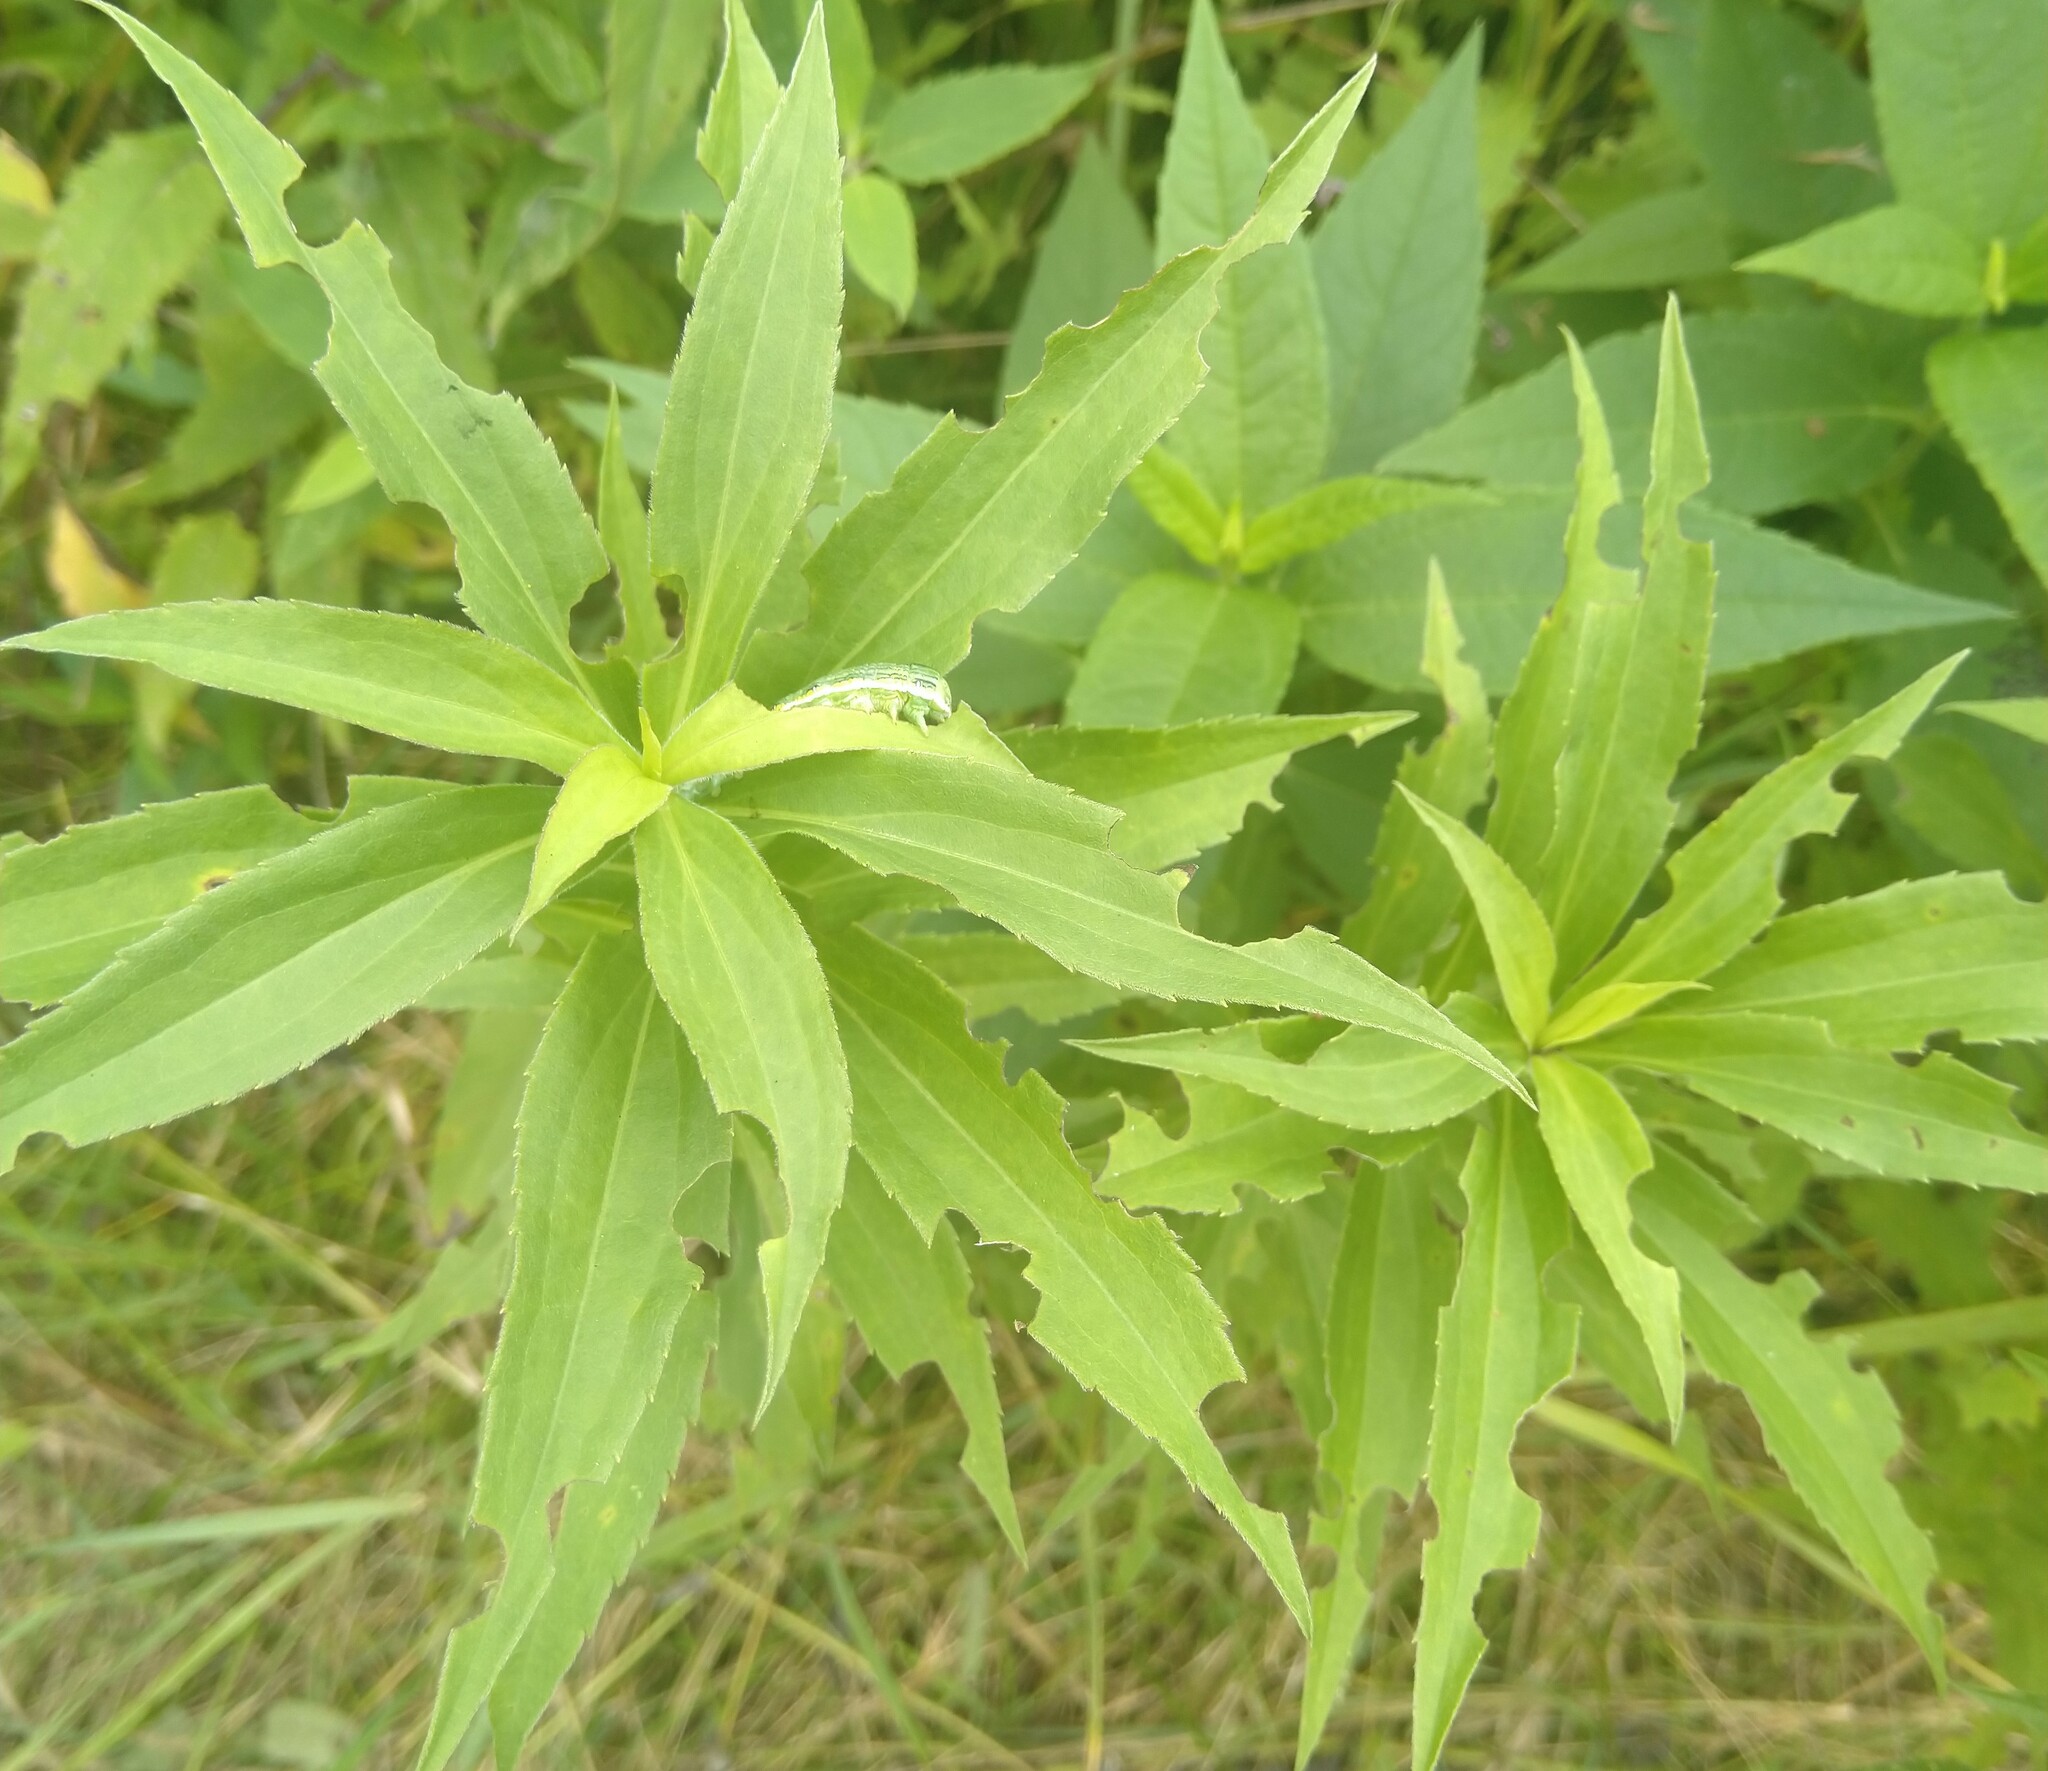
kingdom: Animalia
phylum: Arthropoda
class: Insecta
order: Lepidoptera
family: Noctuidae
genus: Cucullia
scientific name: Cucullia asteroides
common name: Asteroid moth
